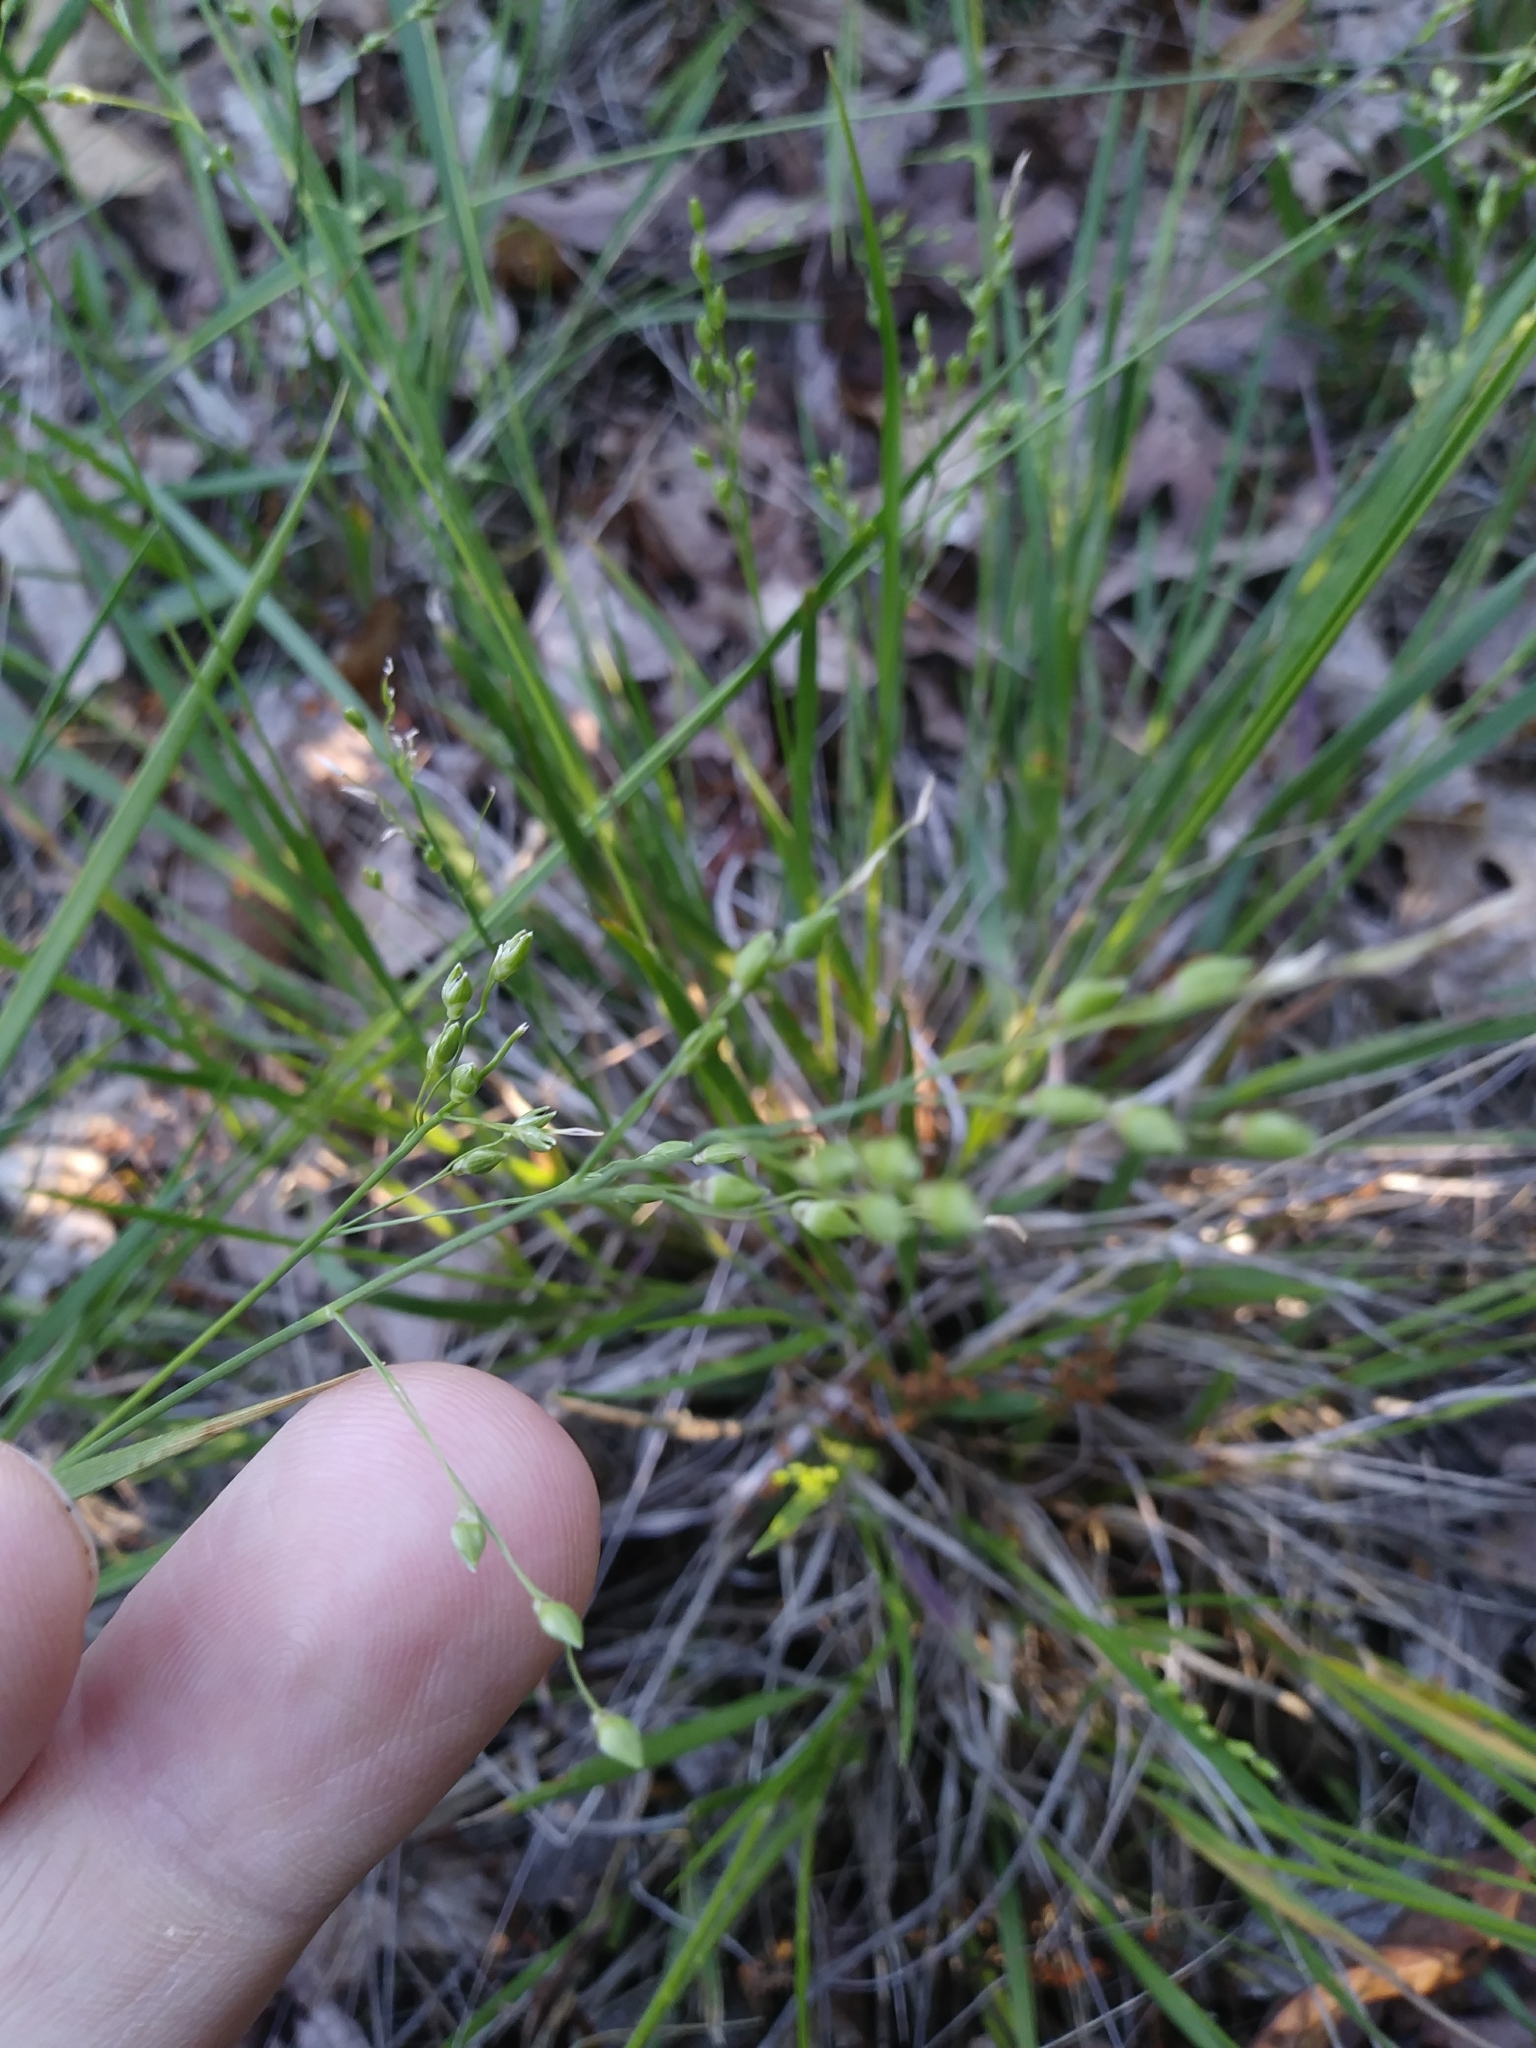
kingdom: Plantae
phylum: Tracheophyta
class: Liliopsida
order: Poales
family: Poaceae
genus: Dichanthelium
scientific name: Dichanthelium depauperatum
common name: Depauperate panicgrass
